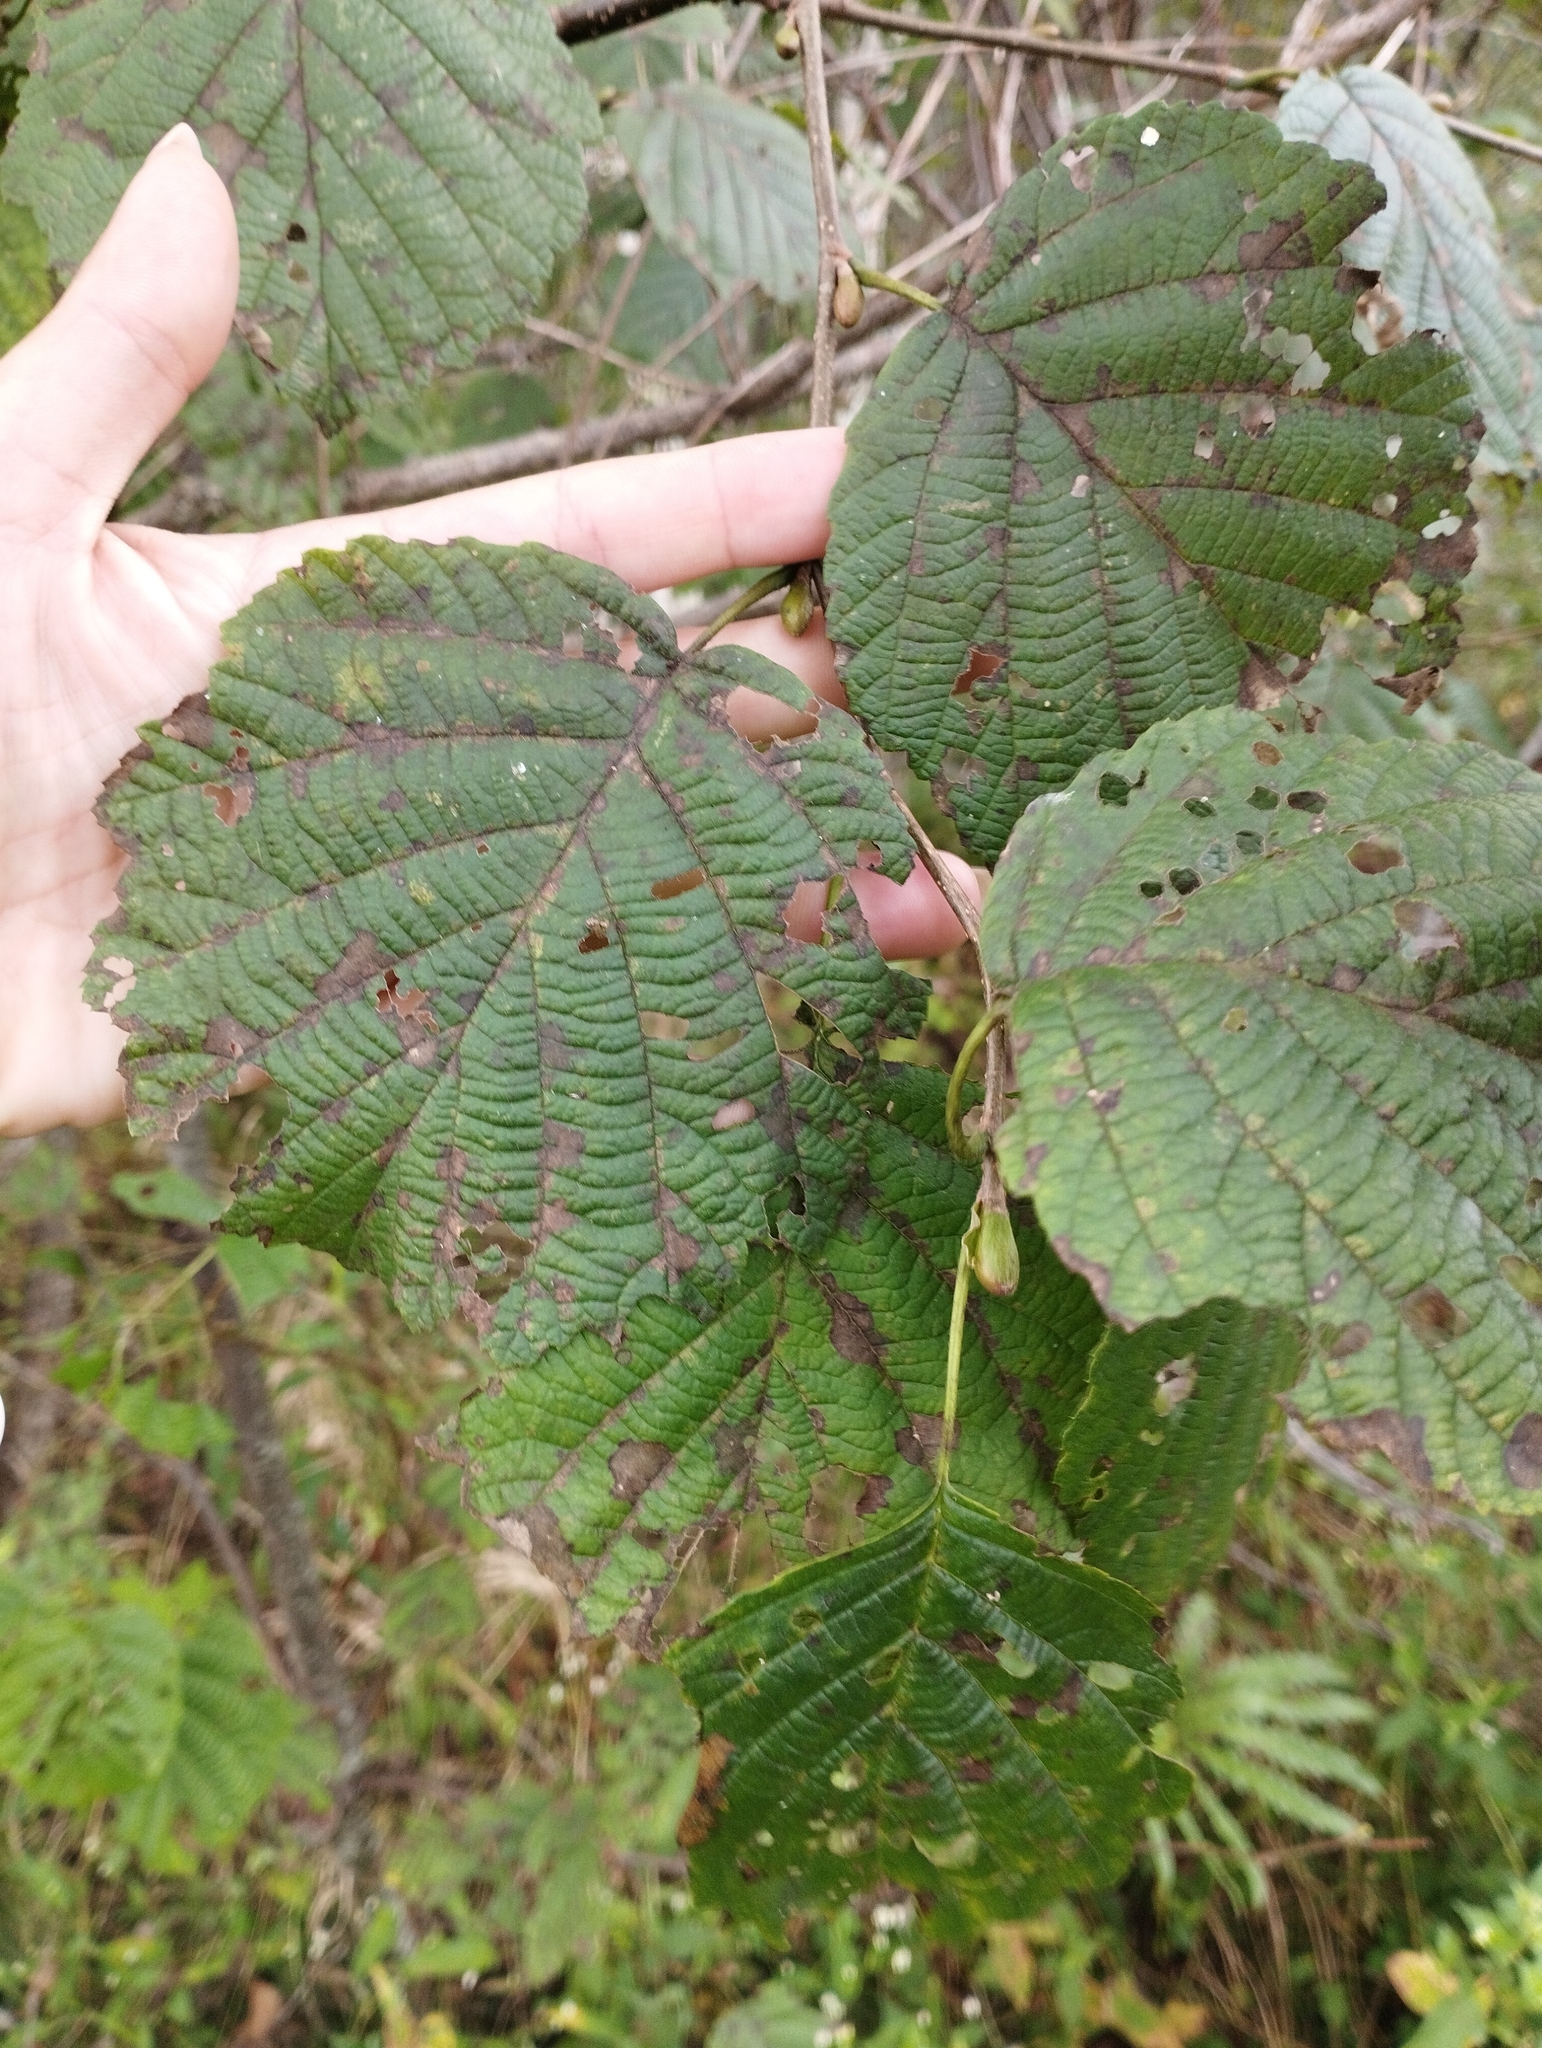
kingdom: Plantae
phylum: Tracheophyta
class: Magnoliopsida
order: Fagales
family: Betulaceae
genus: Alnus
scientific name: Alnus hirsuta
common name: Manchurian alder
